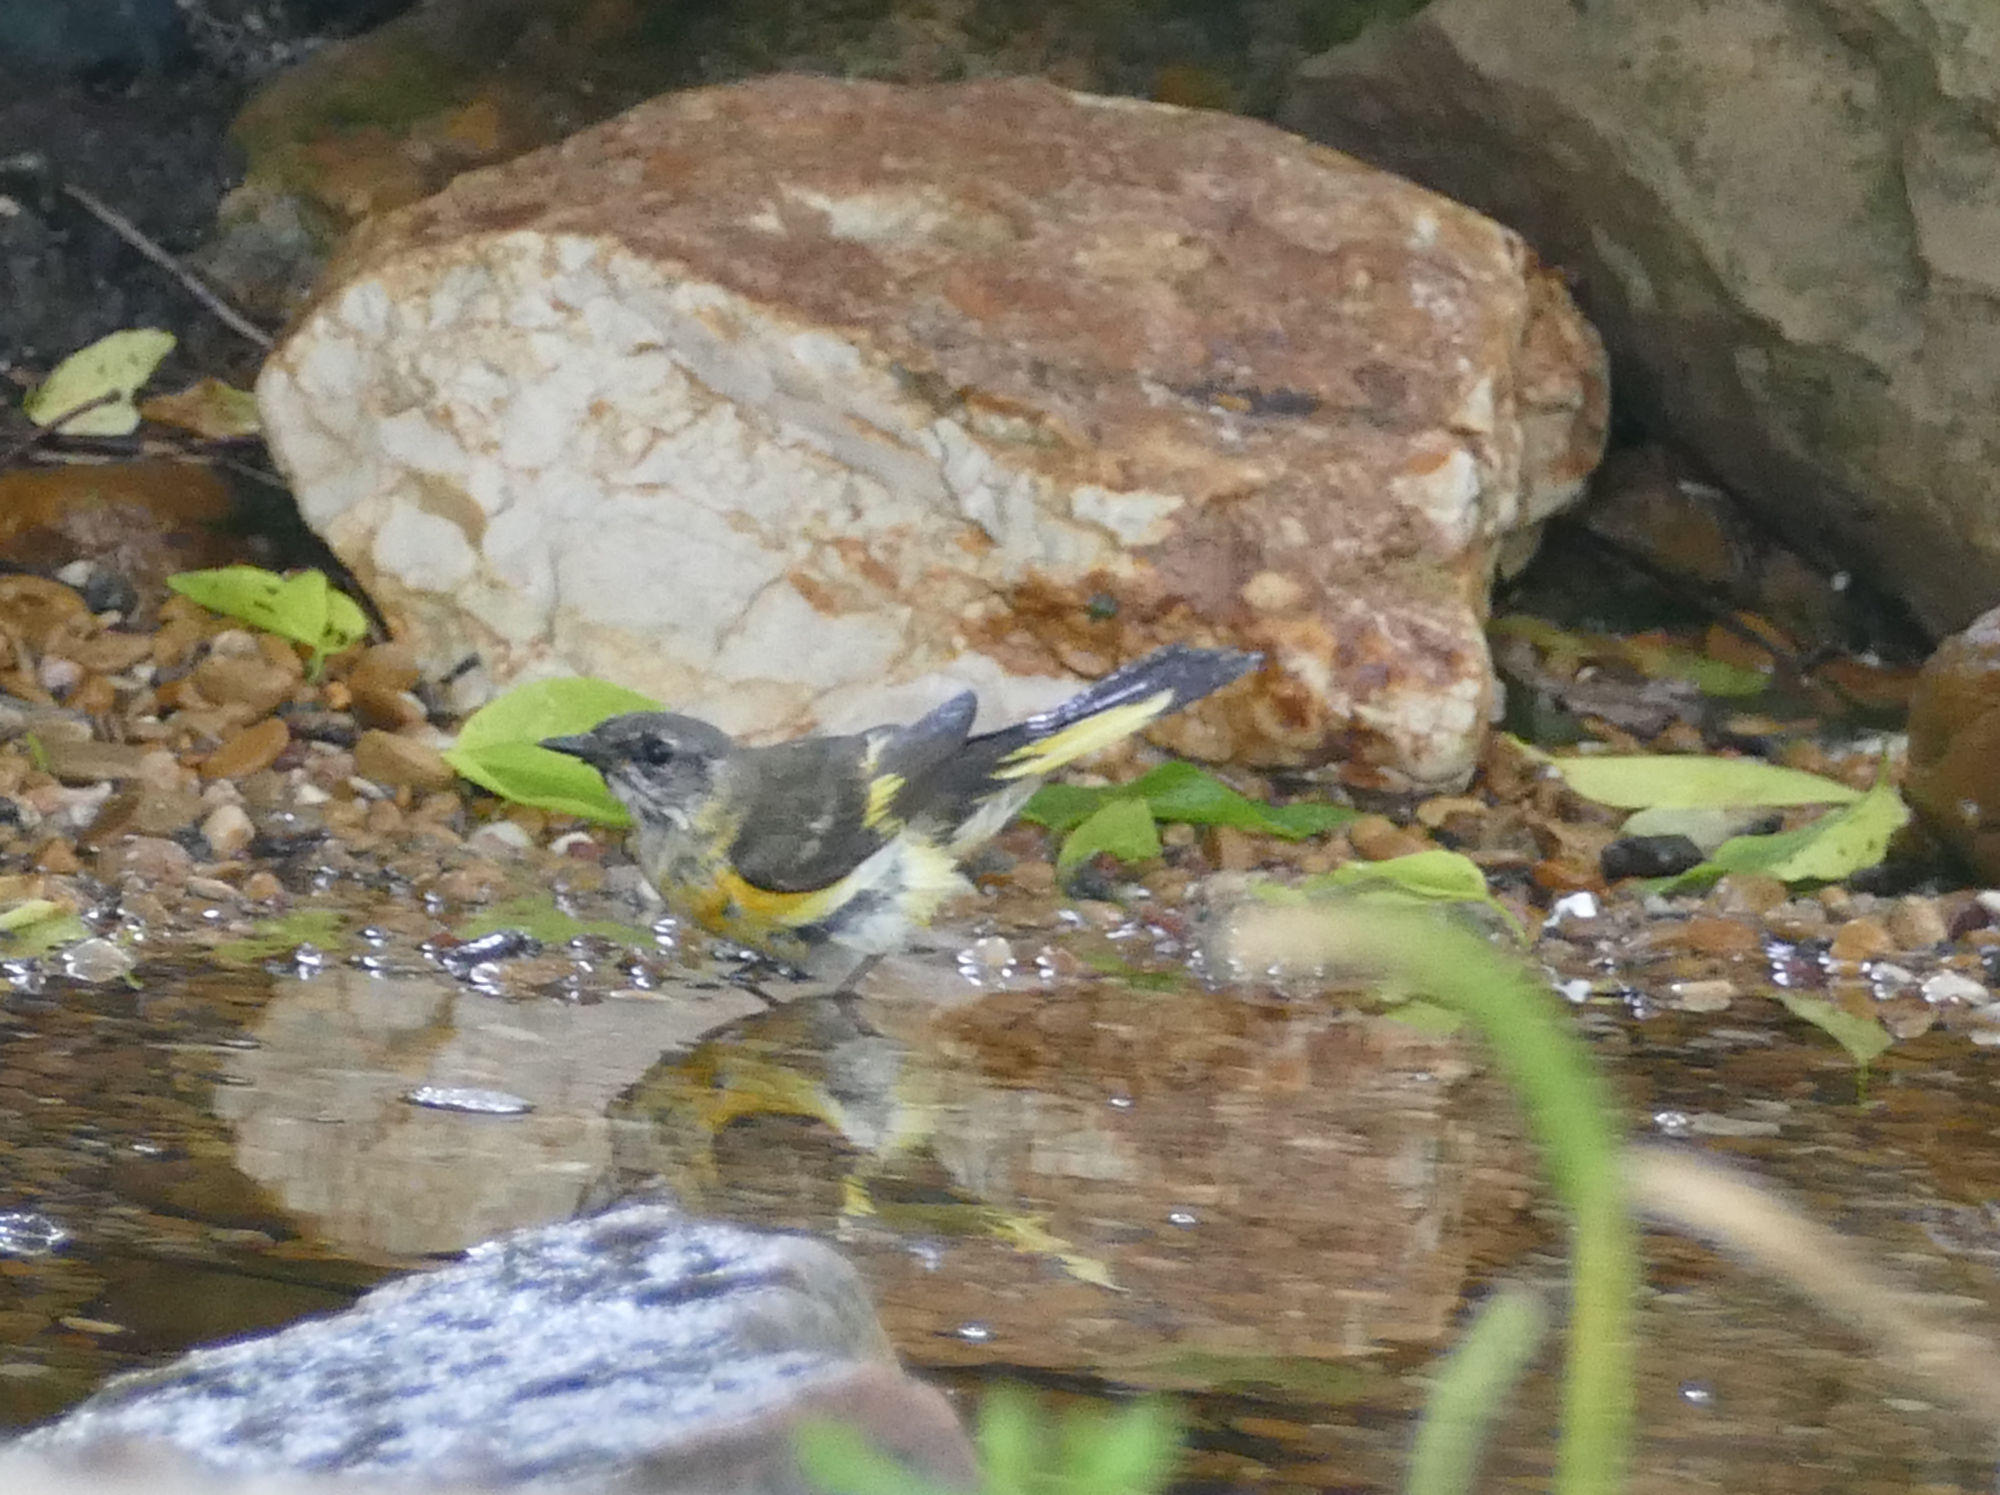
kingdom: Animalia
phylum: Chordata
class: Aves
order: Passeriformes
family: Parulidae
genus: Setophaga
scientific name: Setophaga ruticilla
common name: American redstart
